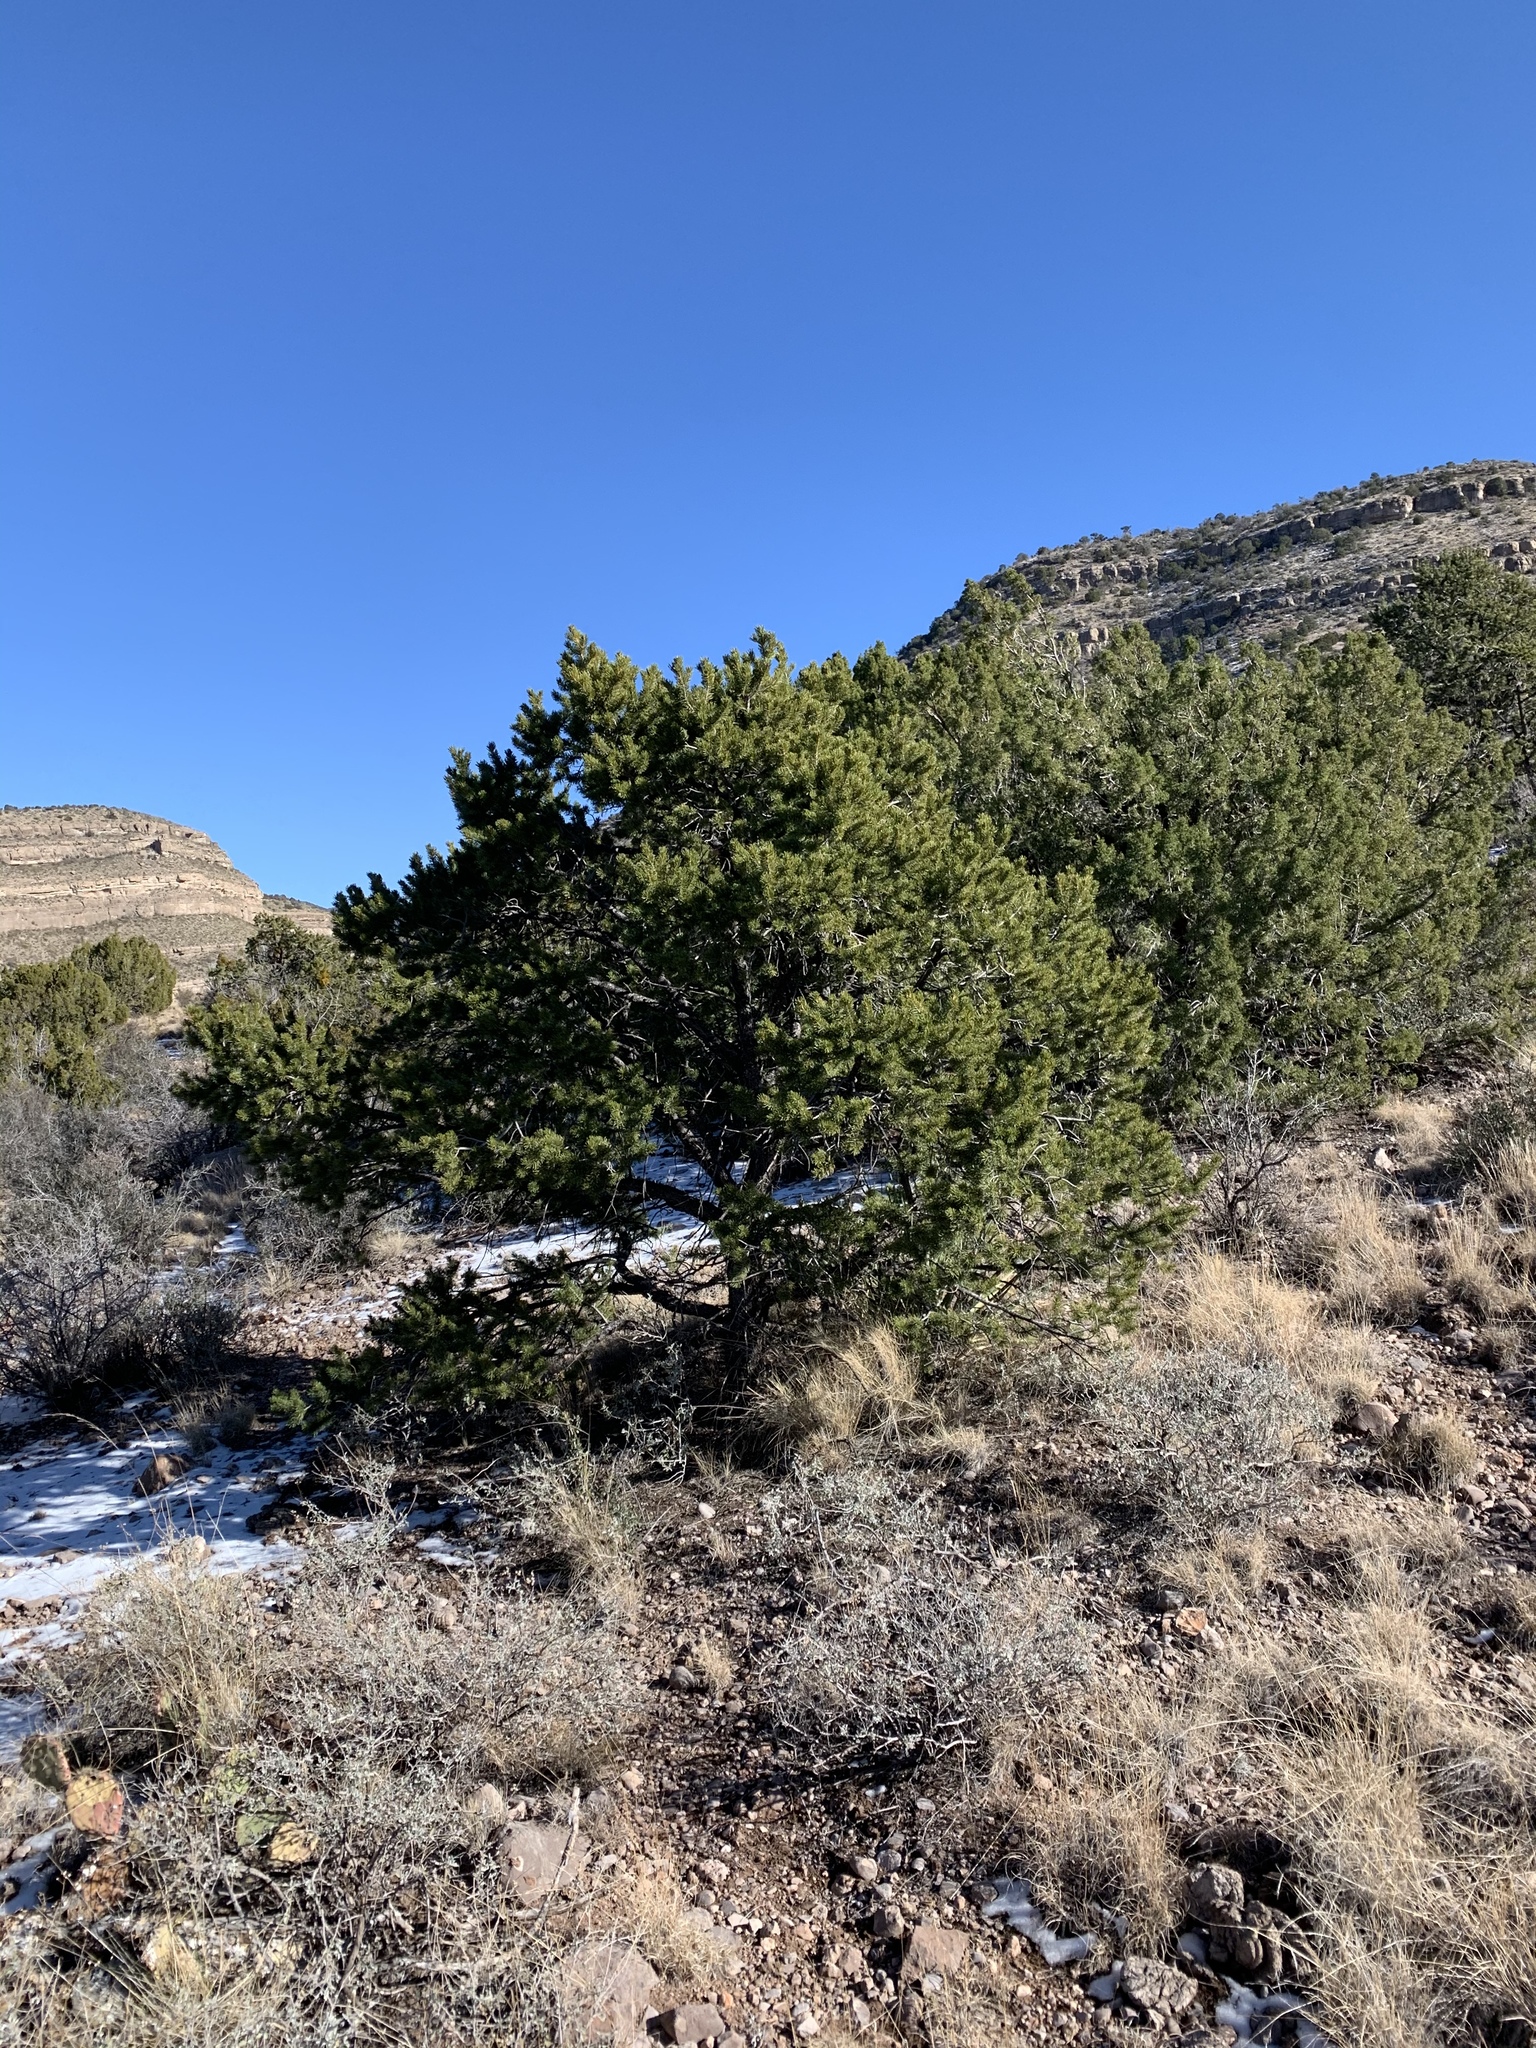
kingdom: Plantae
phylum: Tracheophyta
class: Pinopsida
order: Pinales
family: Pinaceae
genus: Pinus
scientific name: Pinus edulis
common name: Colorado pinyon
